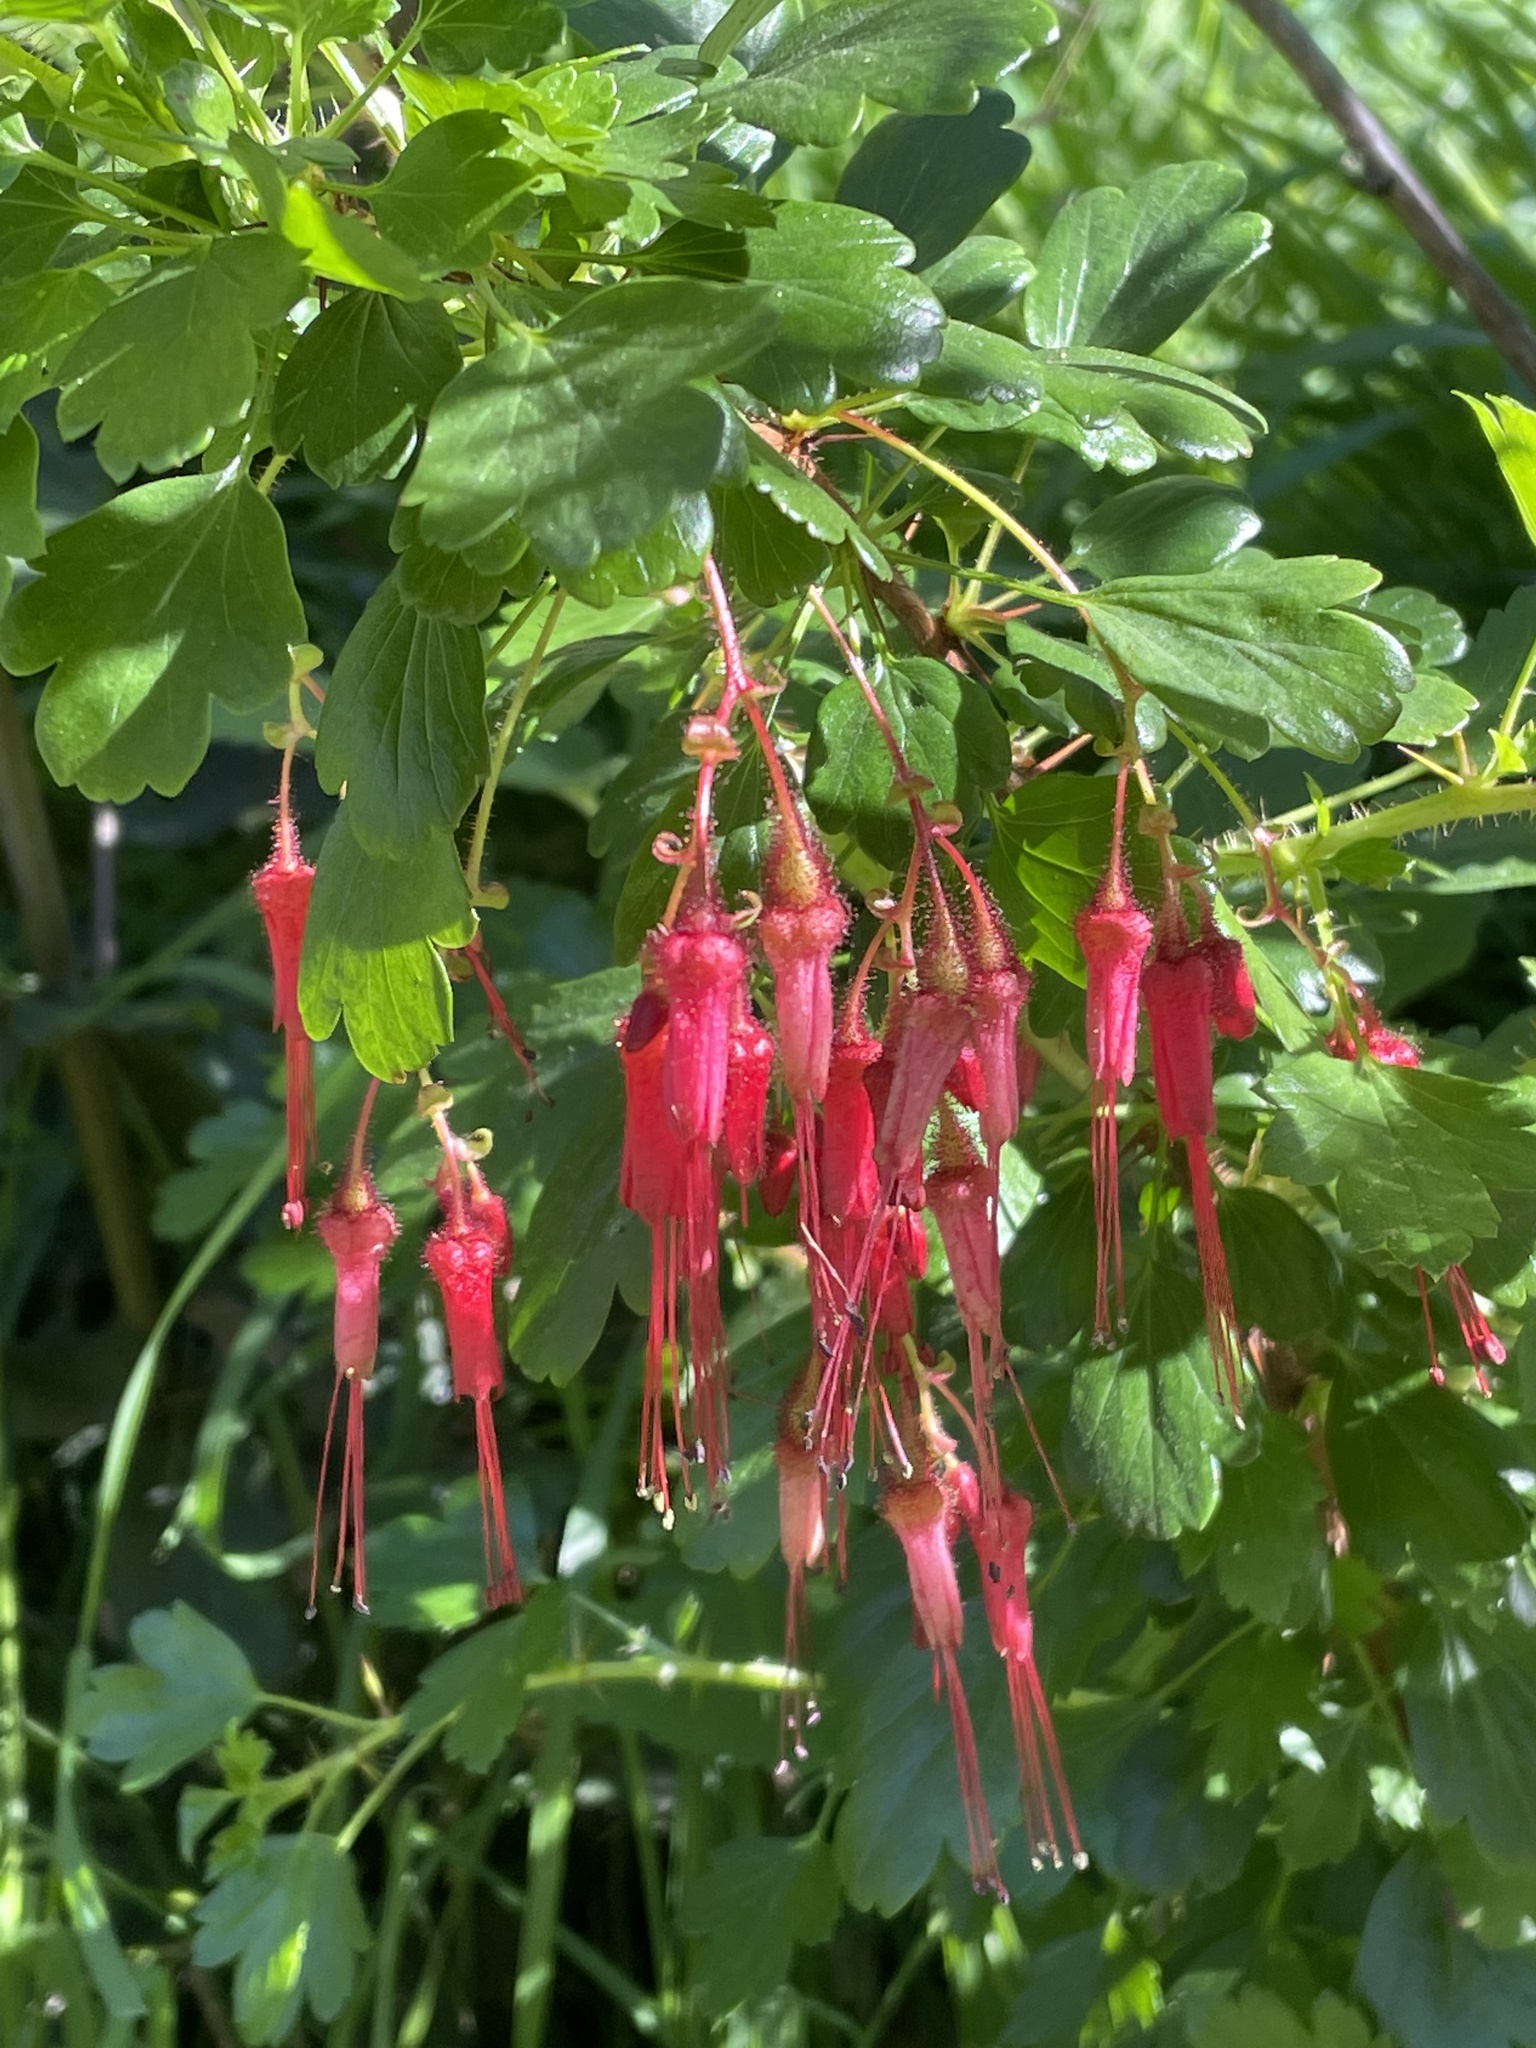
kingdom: Plantae
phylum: Tracheophyta
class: Magnoliopsida
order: Saxifragales
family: Grossulariaceae
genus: Ribes
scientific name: Ribes speciosum
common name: Fuchsia-flower gooseberry
